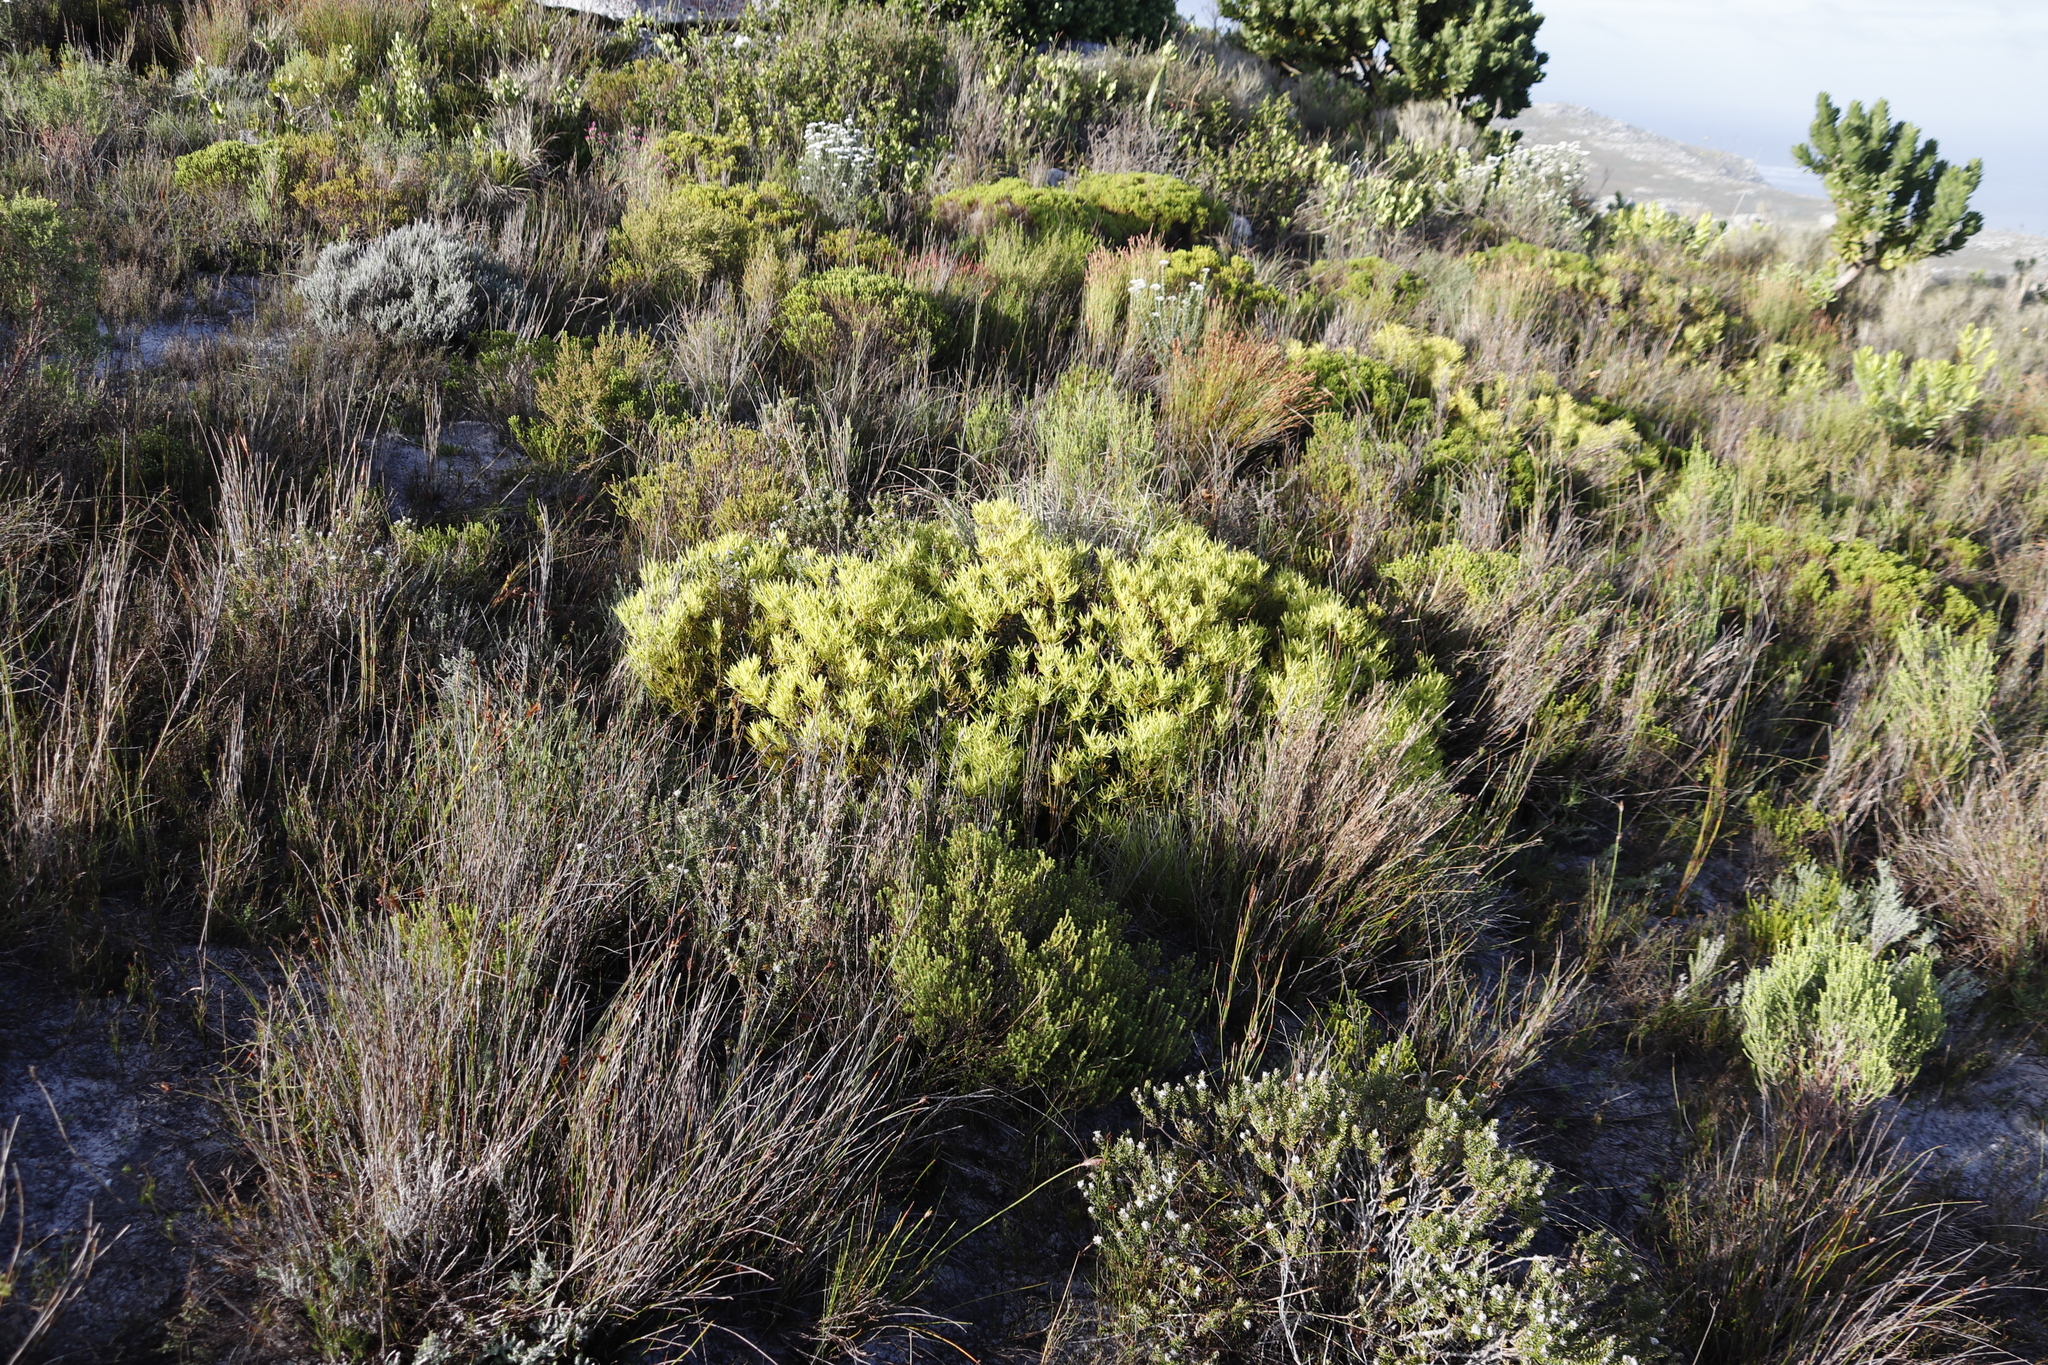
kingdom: Plantae
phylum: Tracheophyta
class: Magnoliopsida
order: Proteales
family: Proteaceae
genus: Leucadendron
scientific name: Leucadendron salignum
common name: Common sunshine conebush
